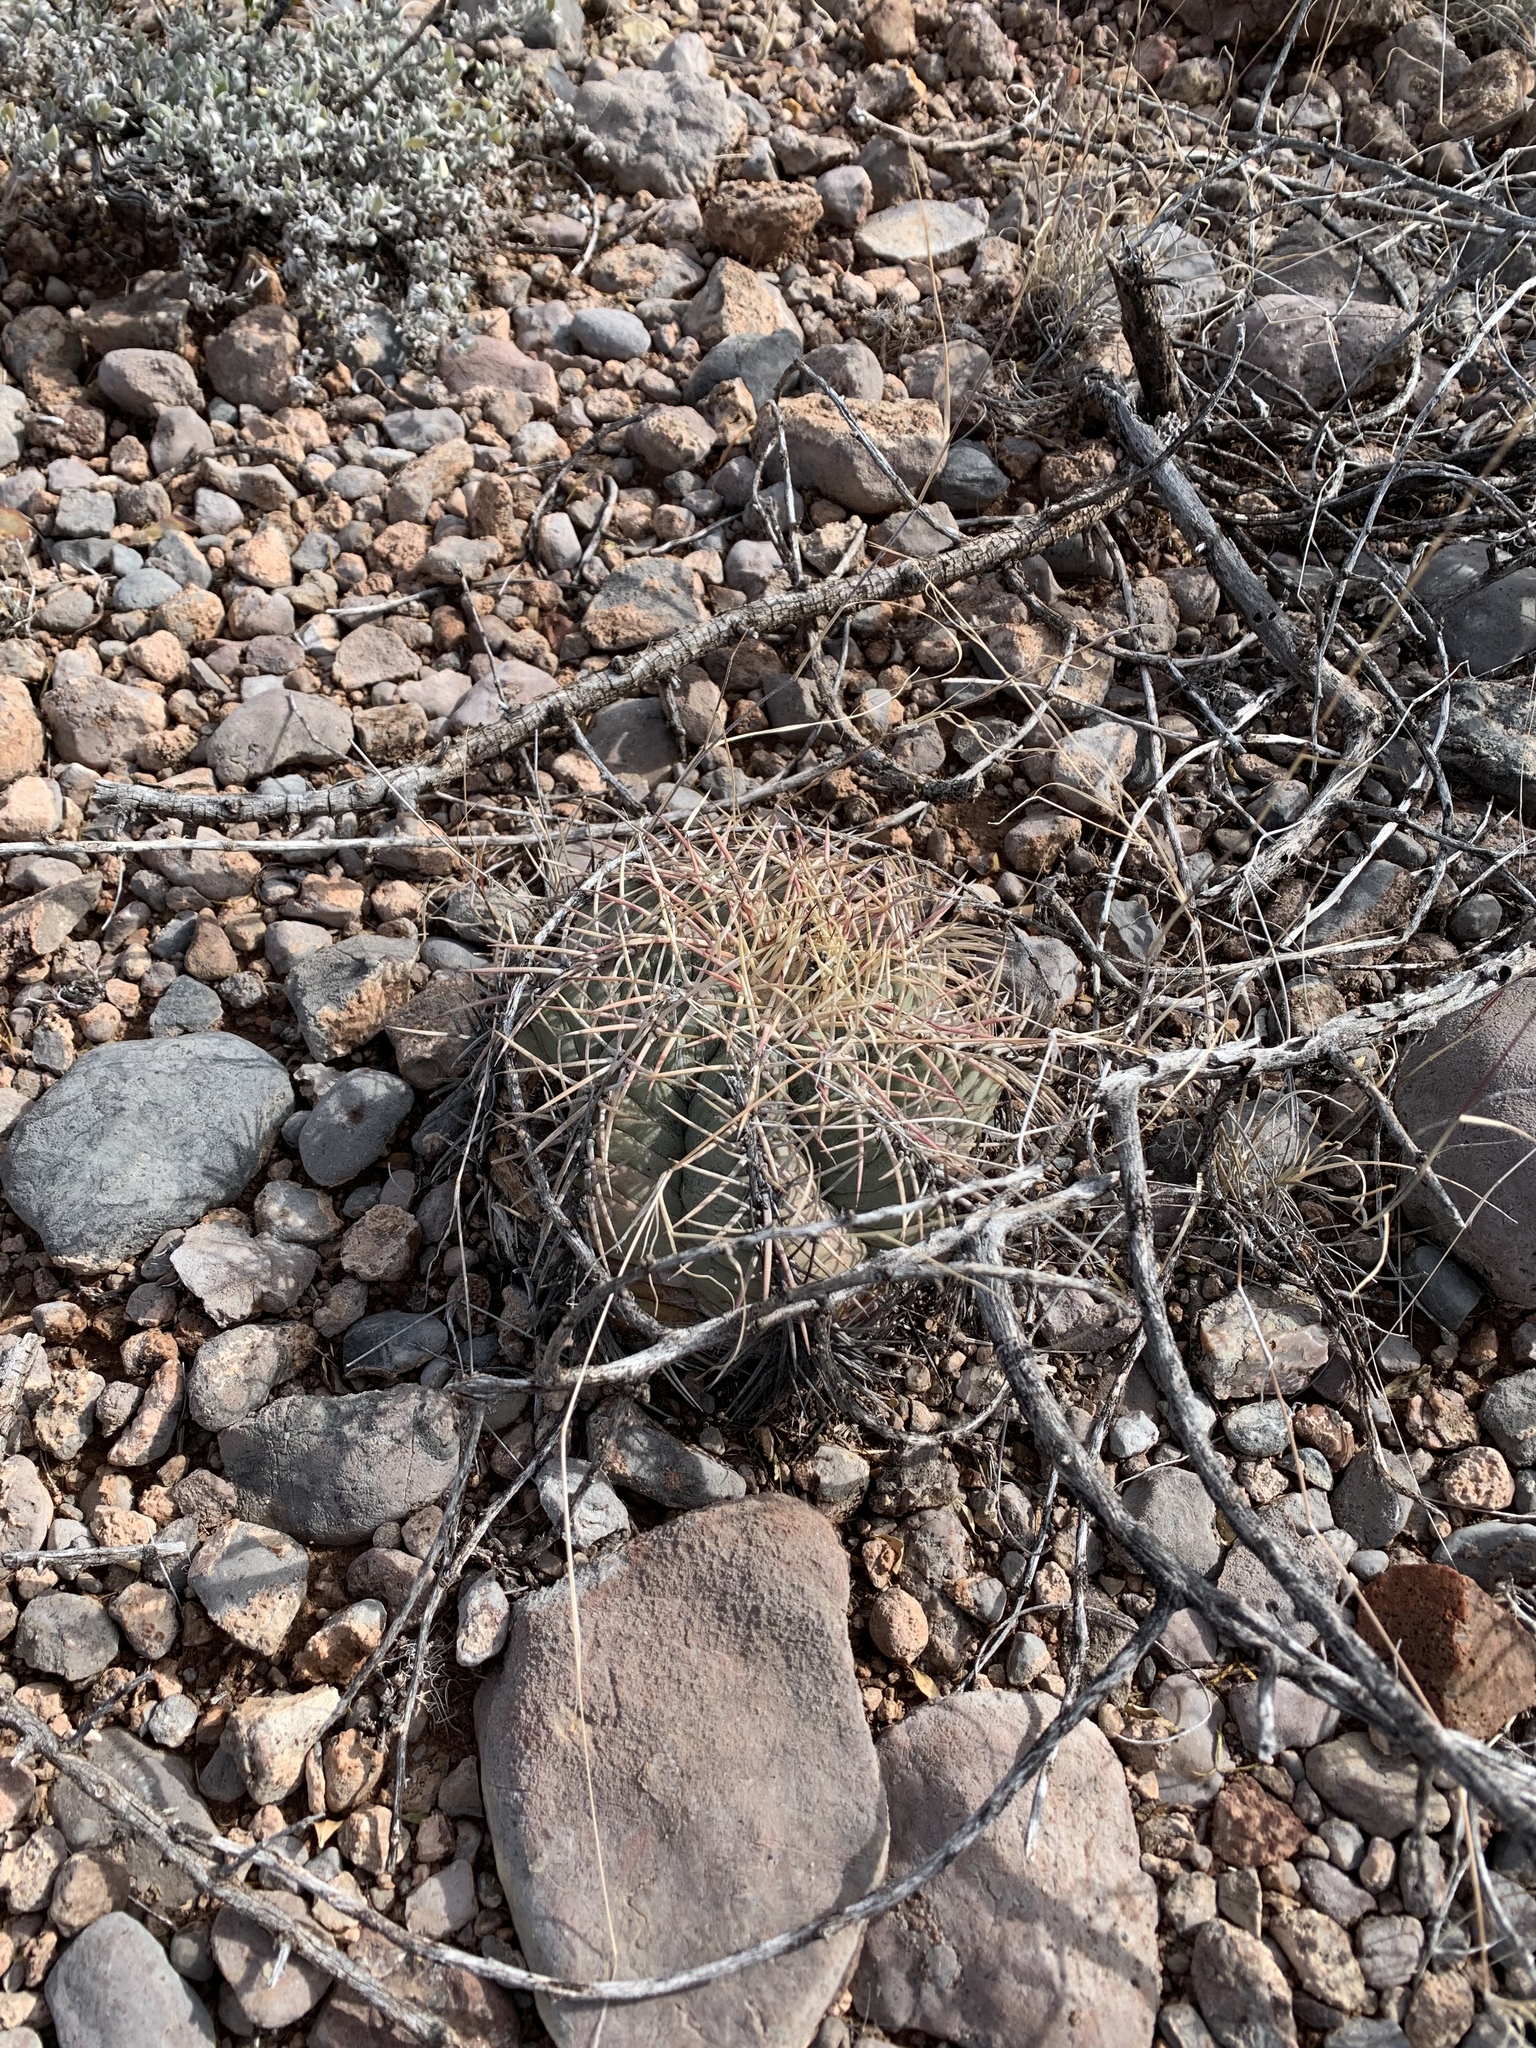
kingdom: Plantae
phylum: Tracheophyta
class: Magnoliopsida
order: Caryophyllales
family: Cactaceae
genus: Echinocactus
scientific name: Echinocactus horizonthalonius
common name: Devilshead
